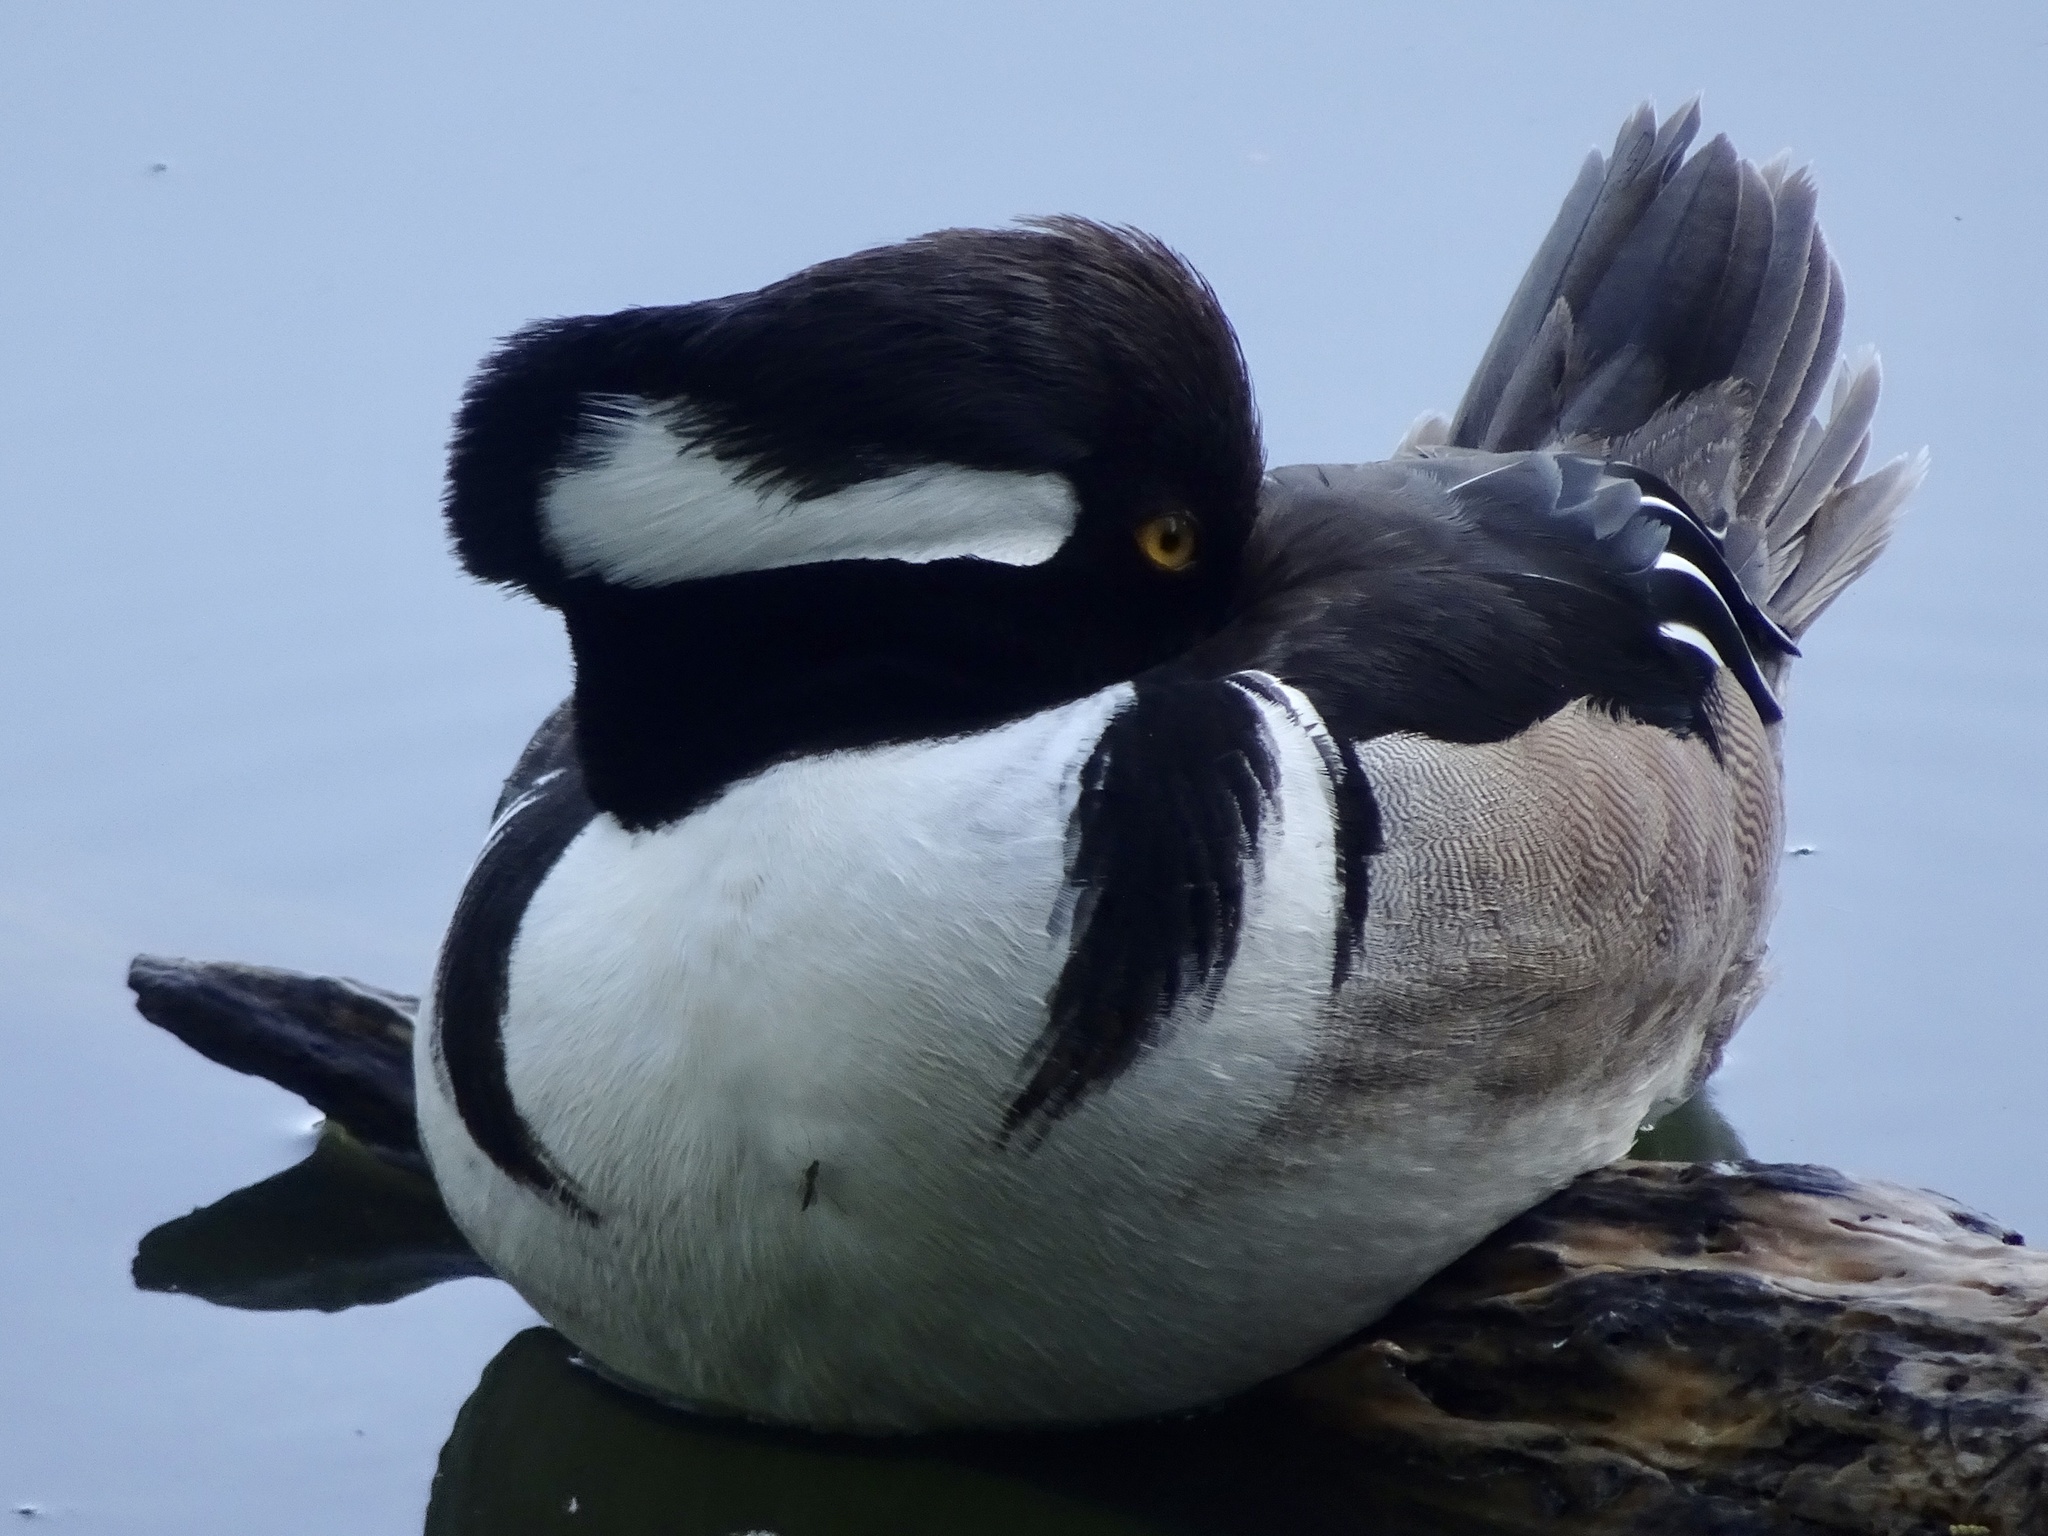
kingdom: Animalia
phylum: Chordata
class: Aves
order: Anseriformes
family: Anatidae
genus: Lophodytes
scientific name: Lophodytes cucullatus
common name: Hooded merganser
